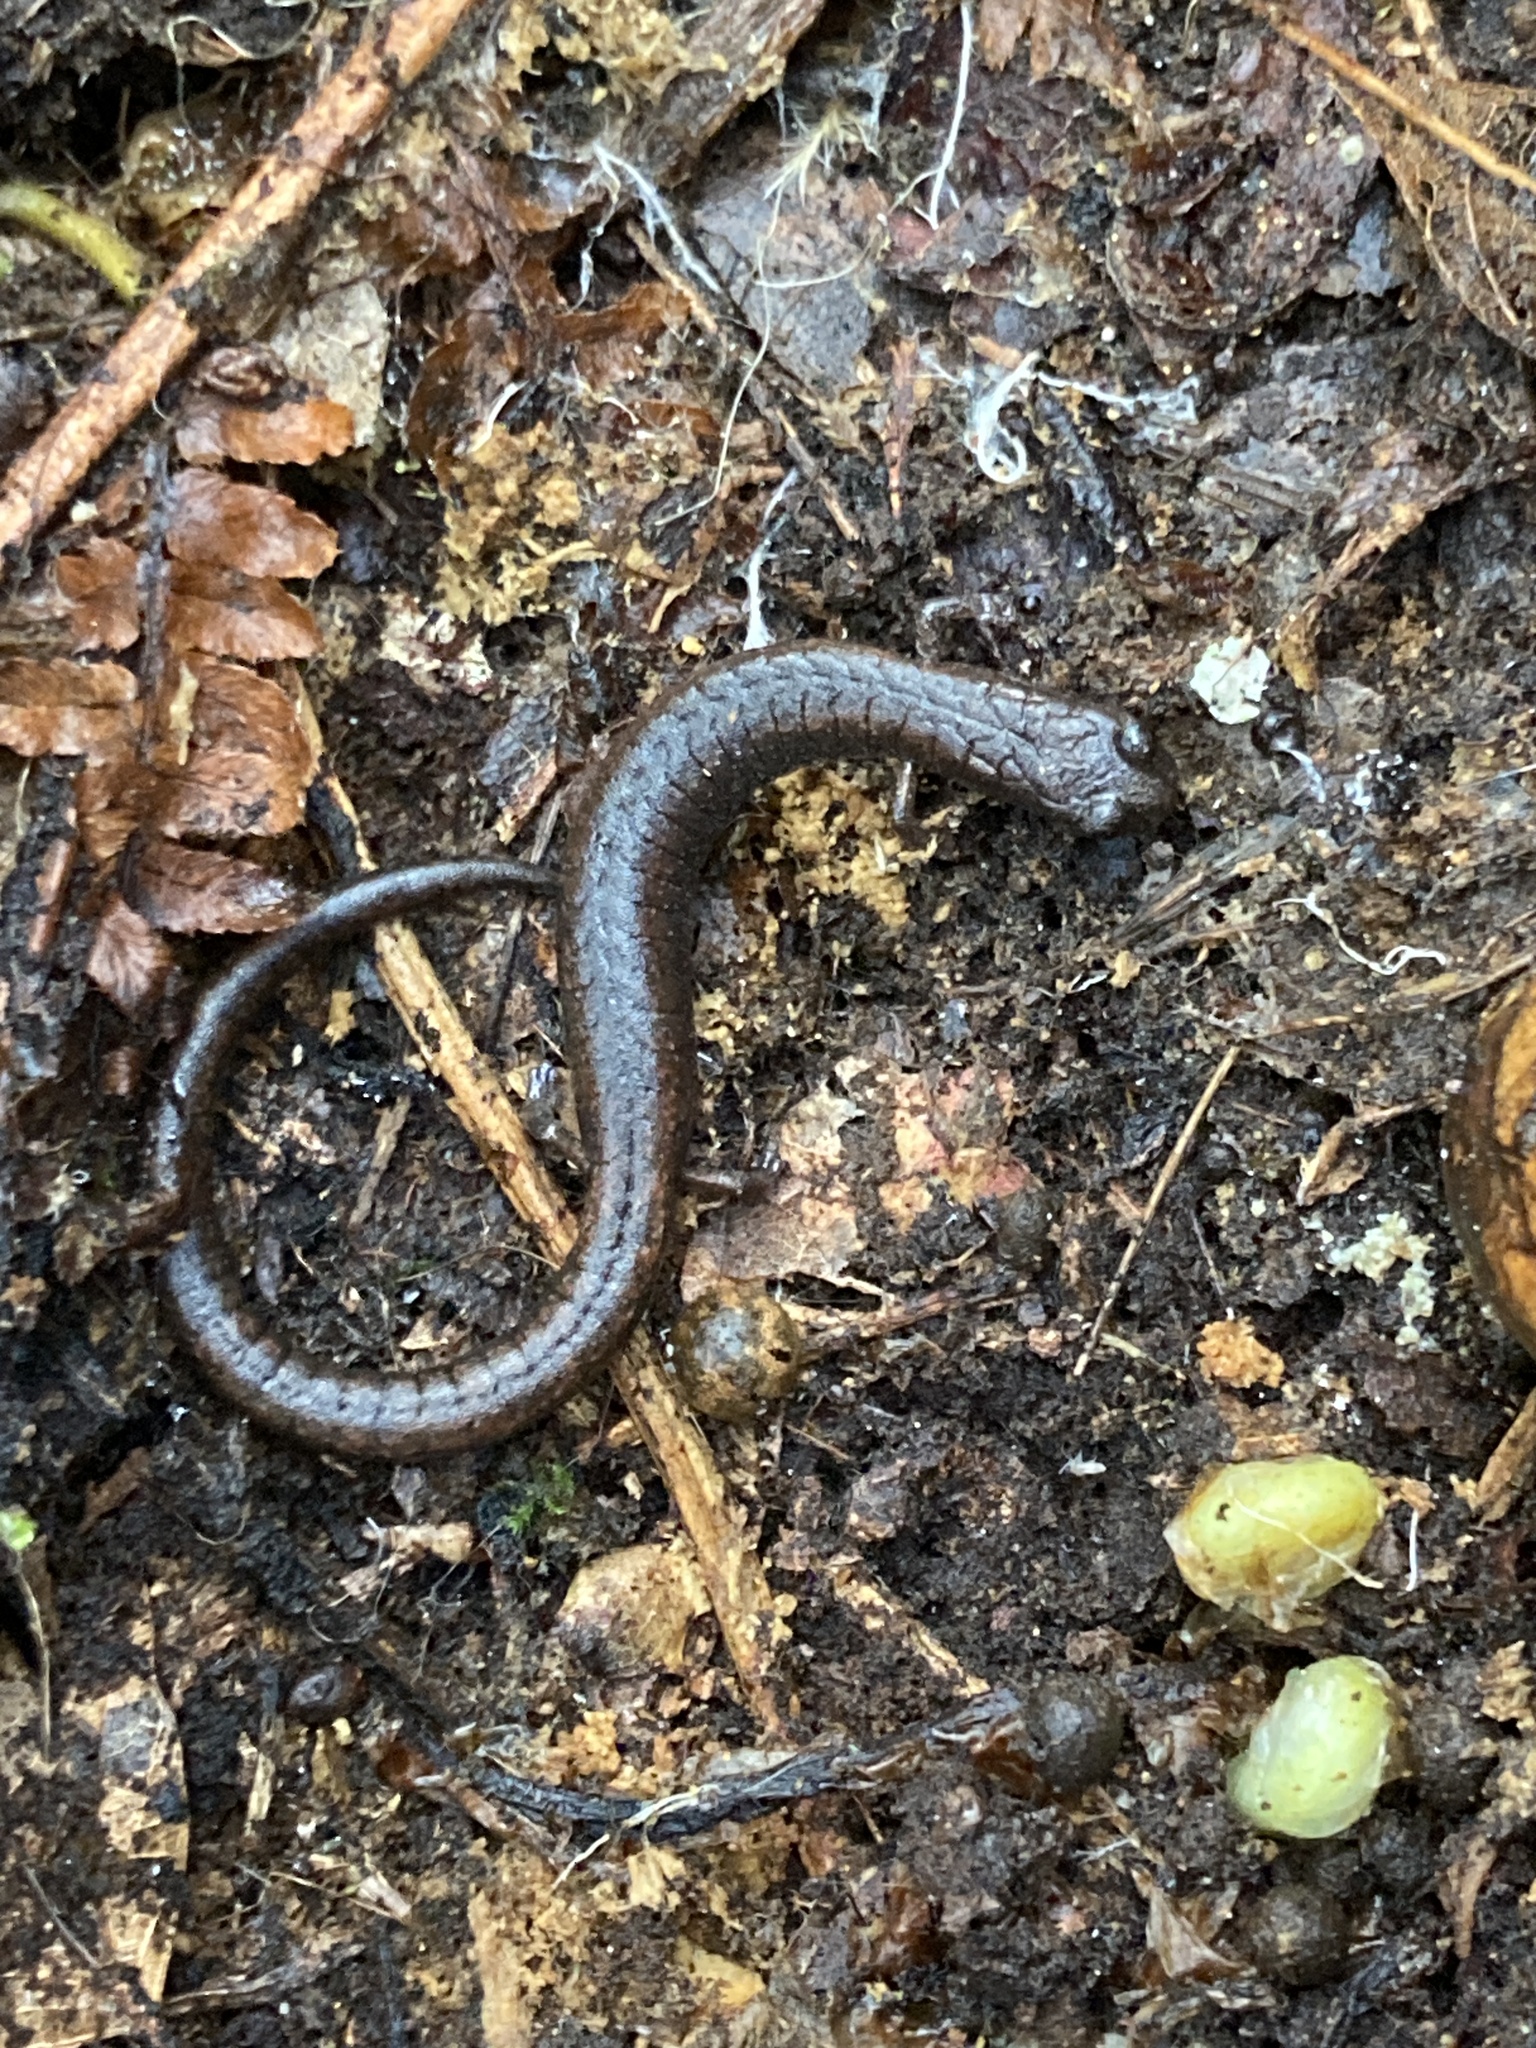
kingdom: Animalia
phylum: Chordata
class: Amphibia
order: Caudata
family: Plethodontidae
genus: Batrachoseps
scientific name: Batrachoseps attenuatus
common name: California slender salamander
